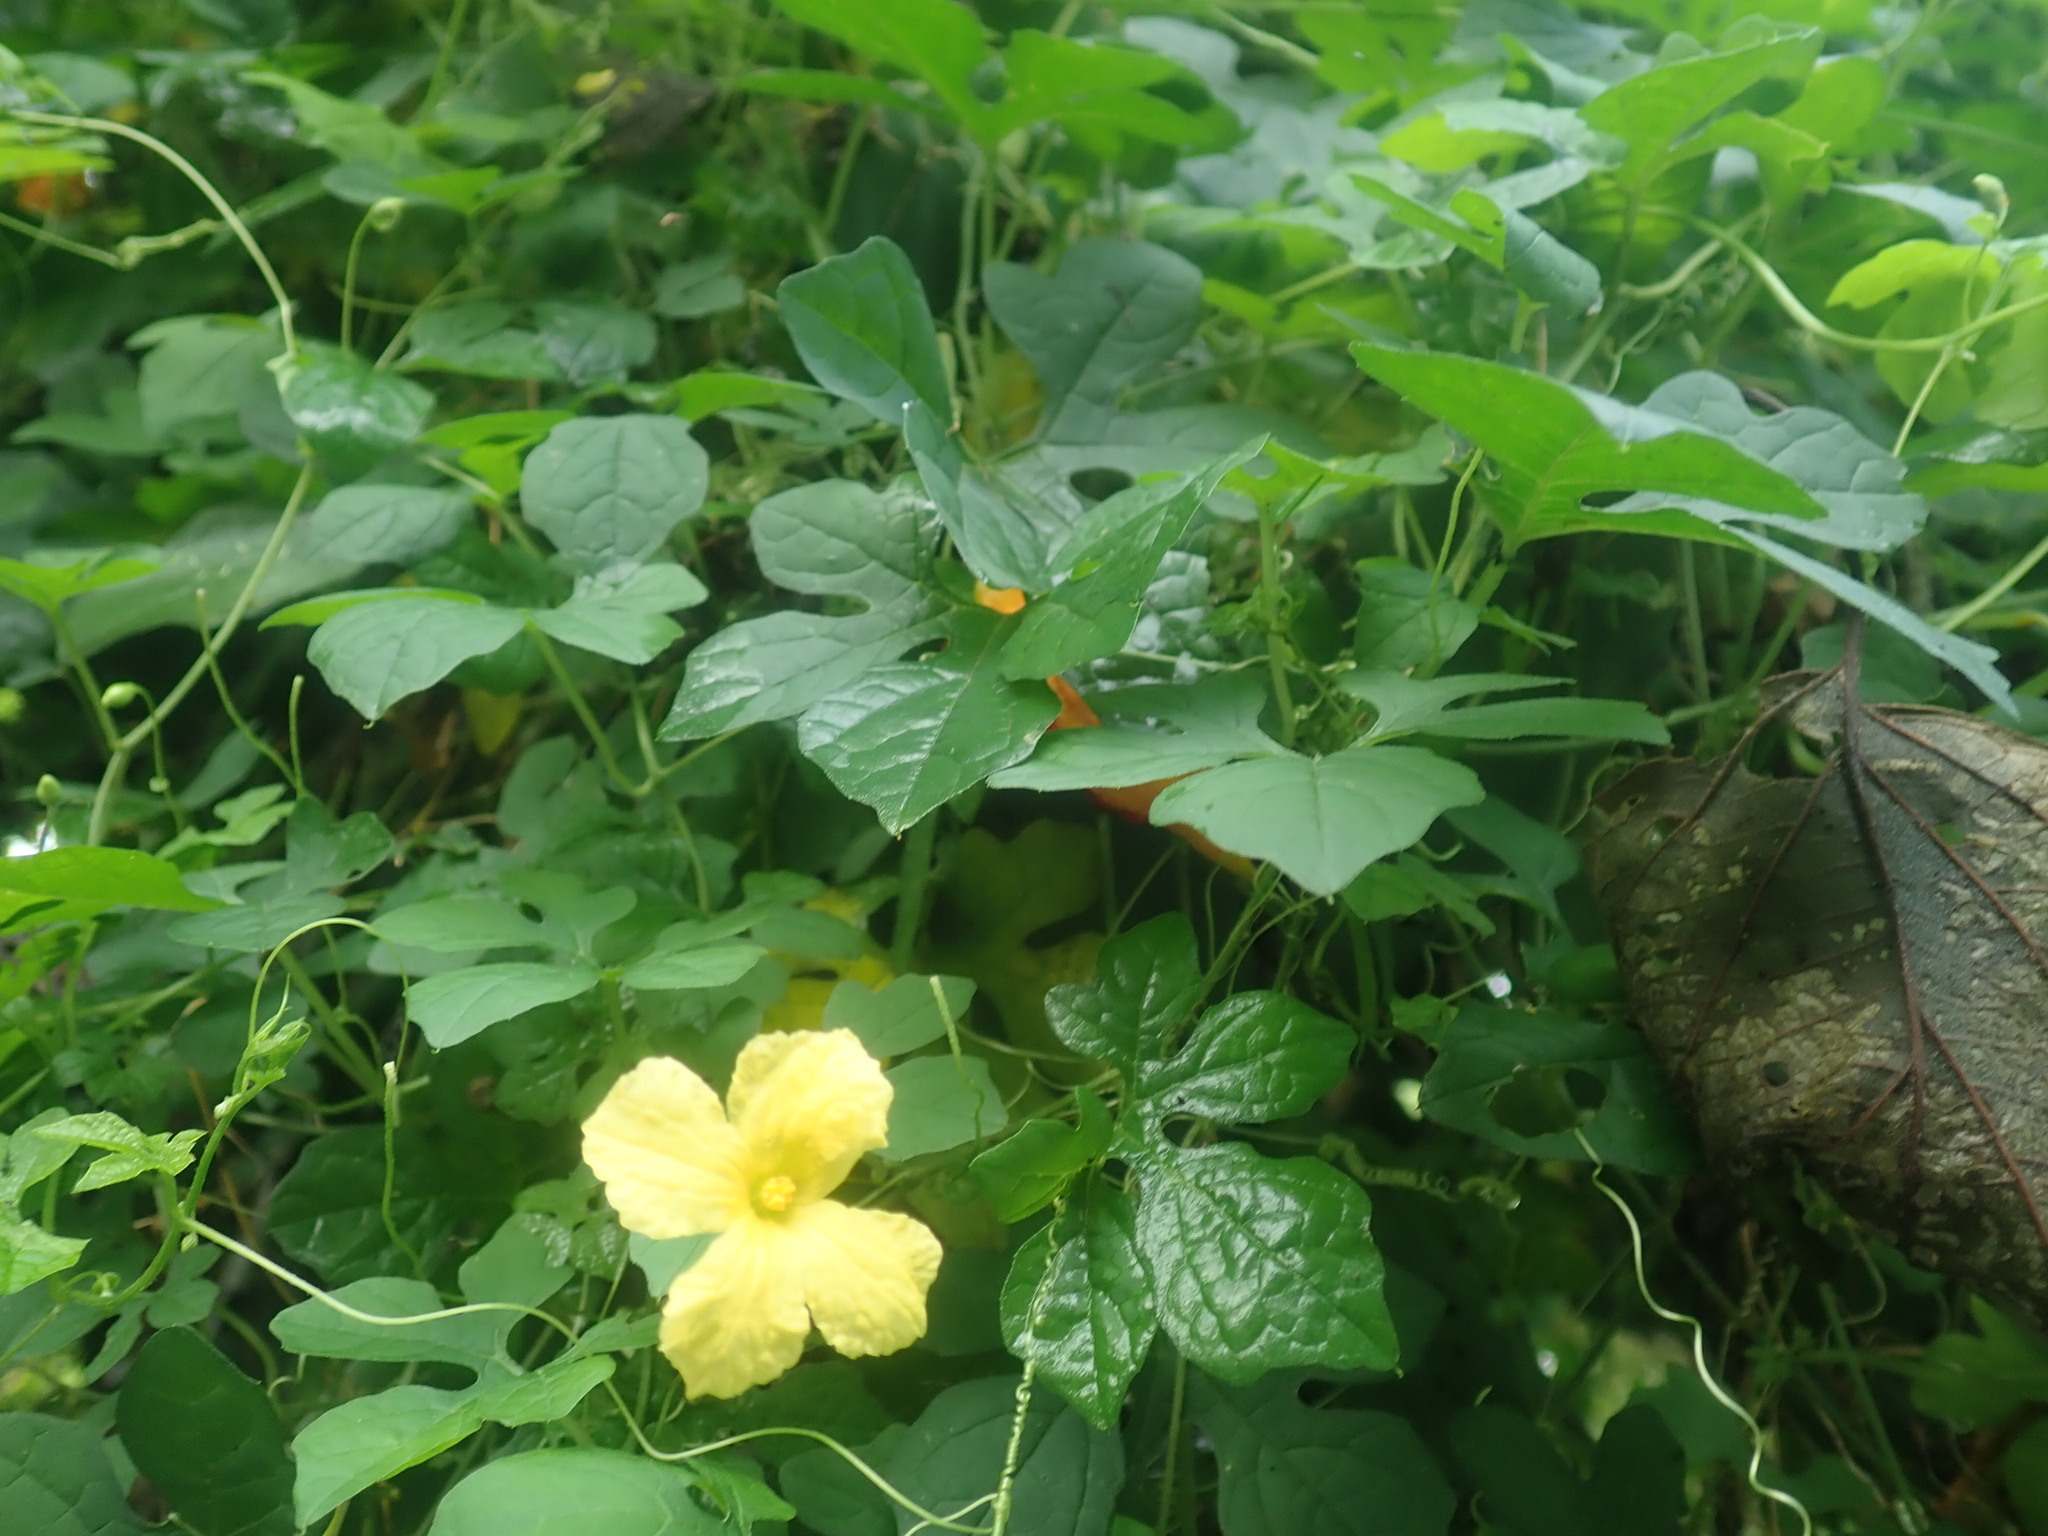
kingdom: Plantae
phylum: Tracheophyta
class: Magnoliopsida
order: Cucurbitales
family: Cucurbitaceae
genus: Momordica
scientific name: Momordica charantia
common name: Balsampear
